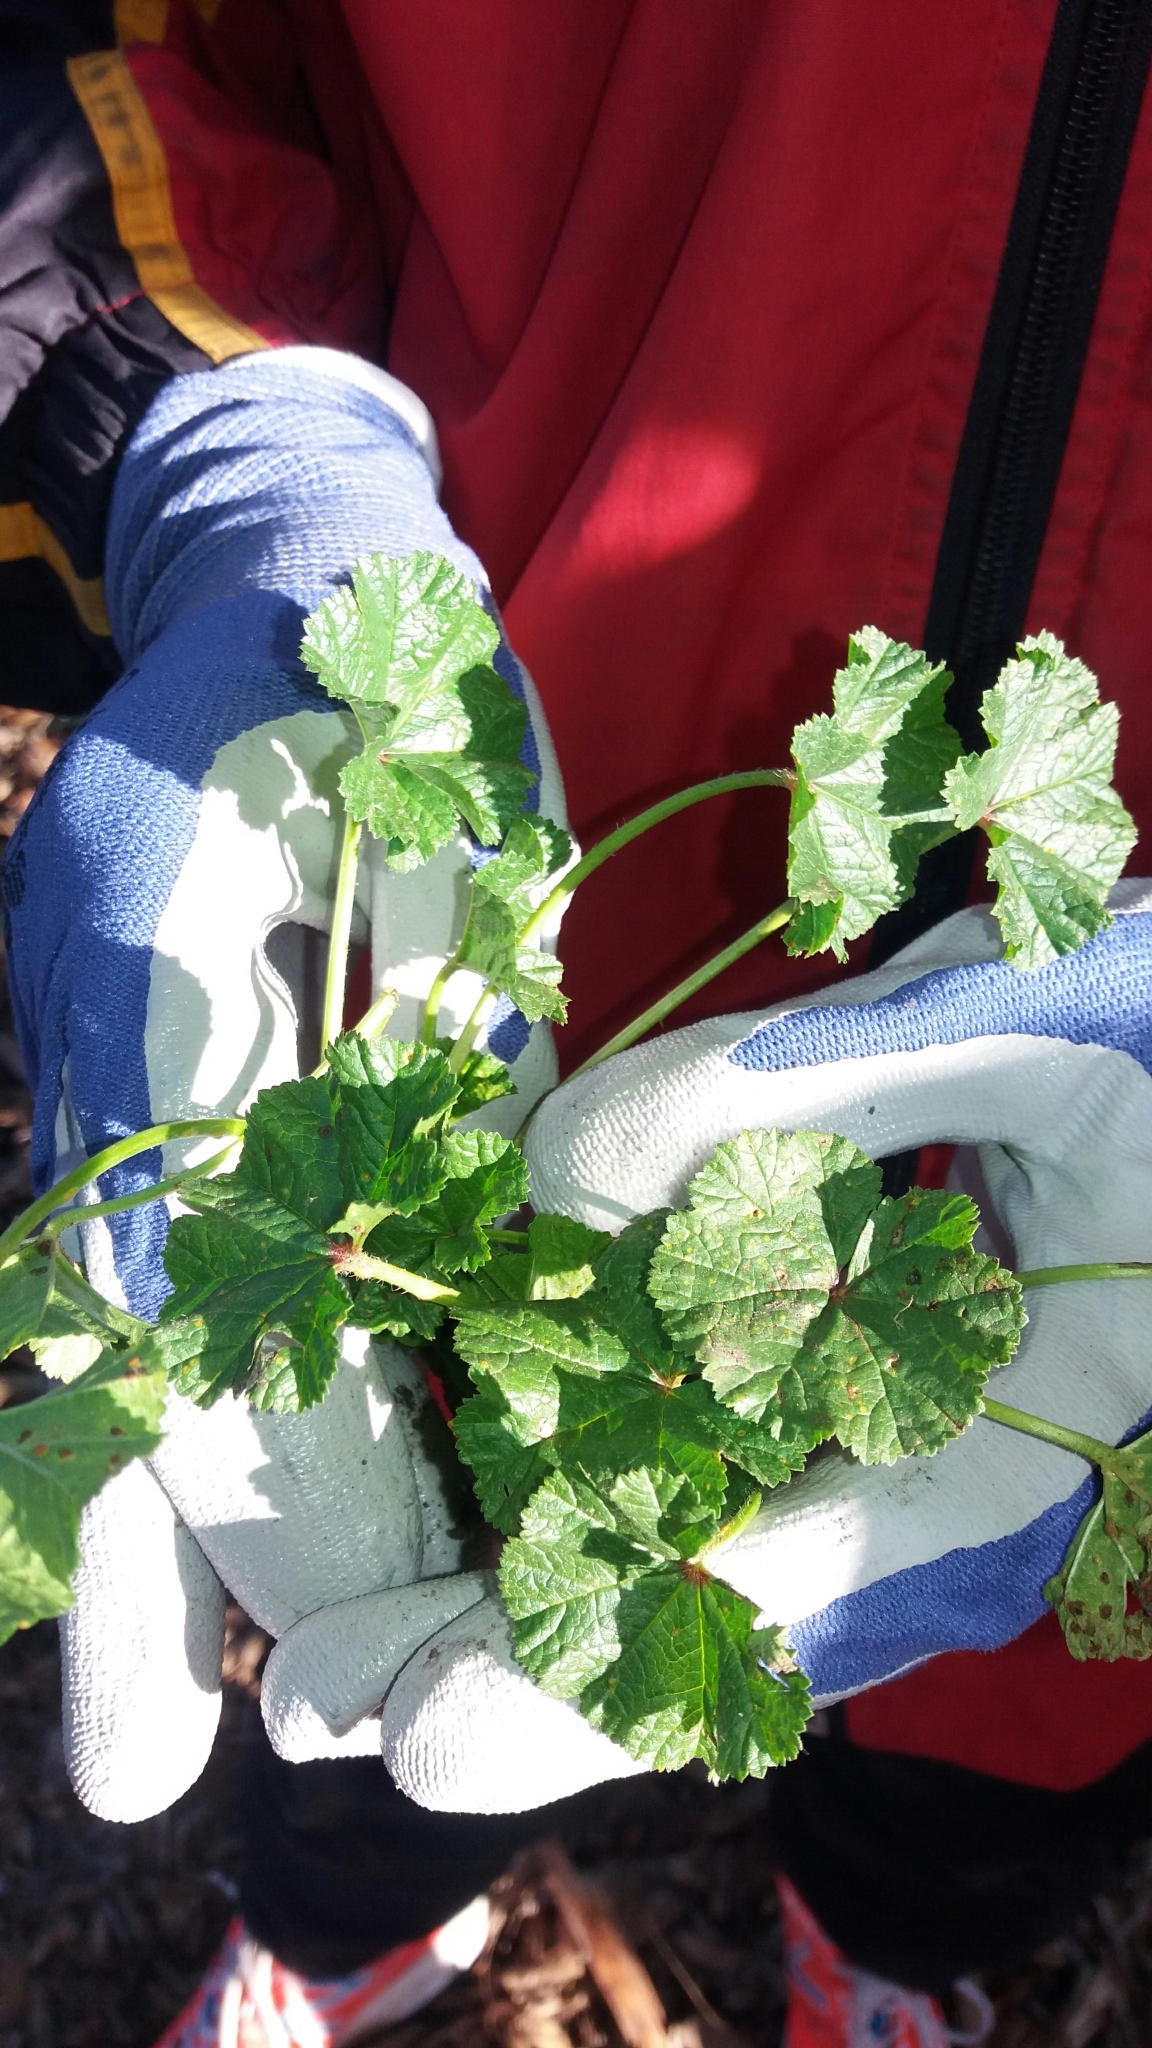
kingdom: Plantae
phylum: Tracheophyta
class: Magnoliopsida
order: Malvales
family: Malvaceae
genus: Malva
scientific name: Malva sylvestris
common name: Common mallow
